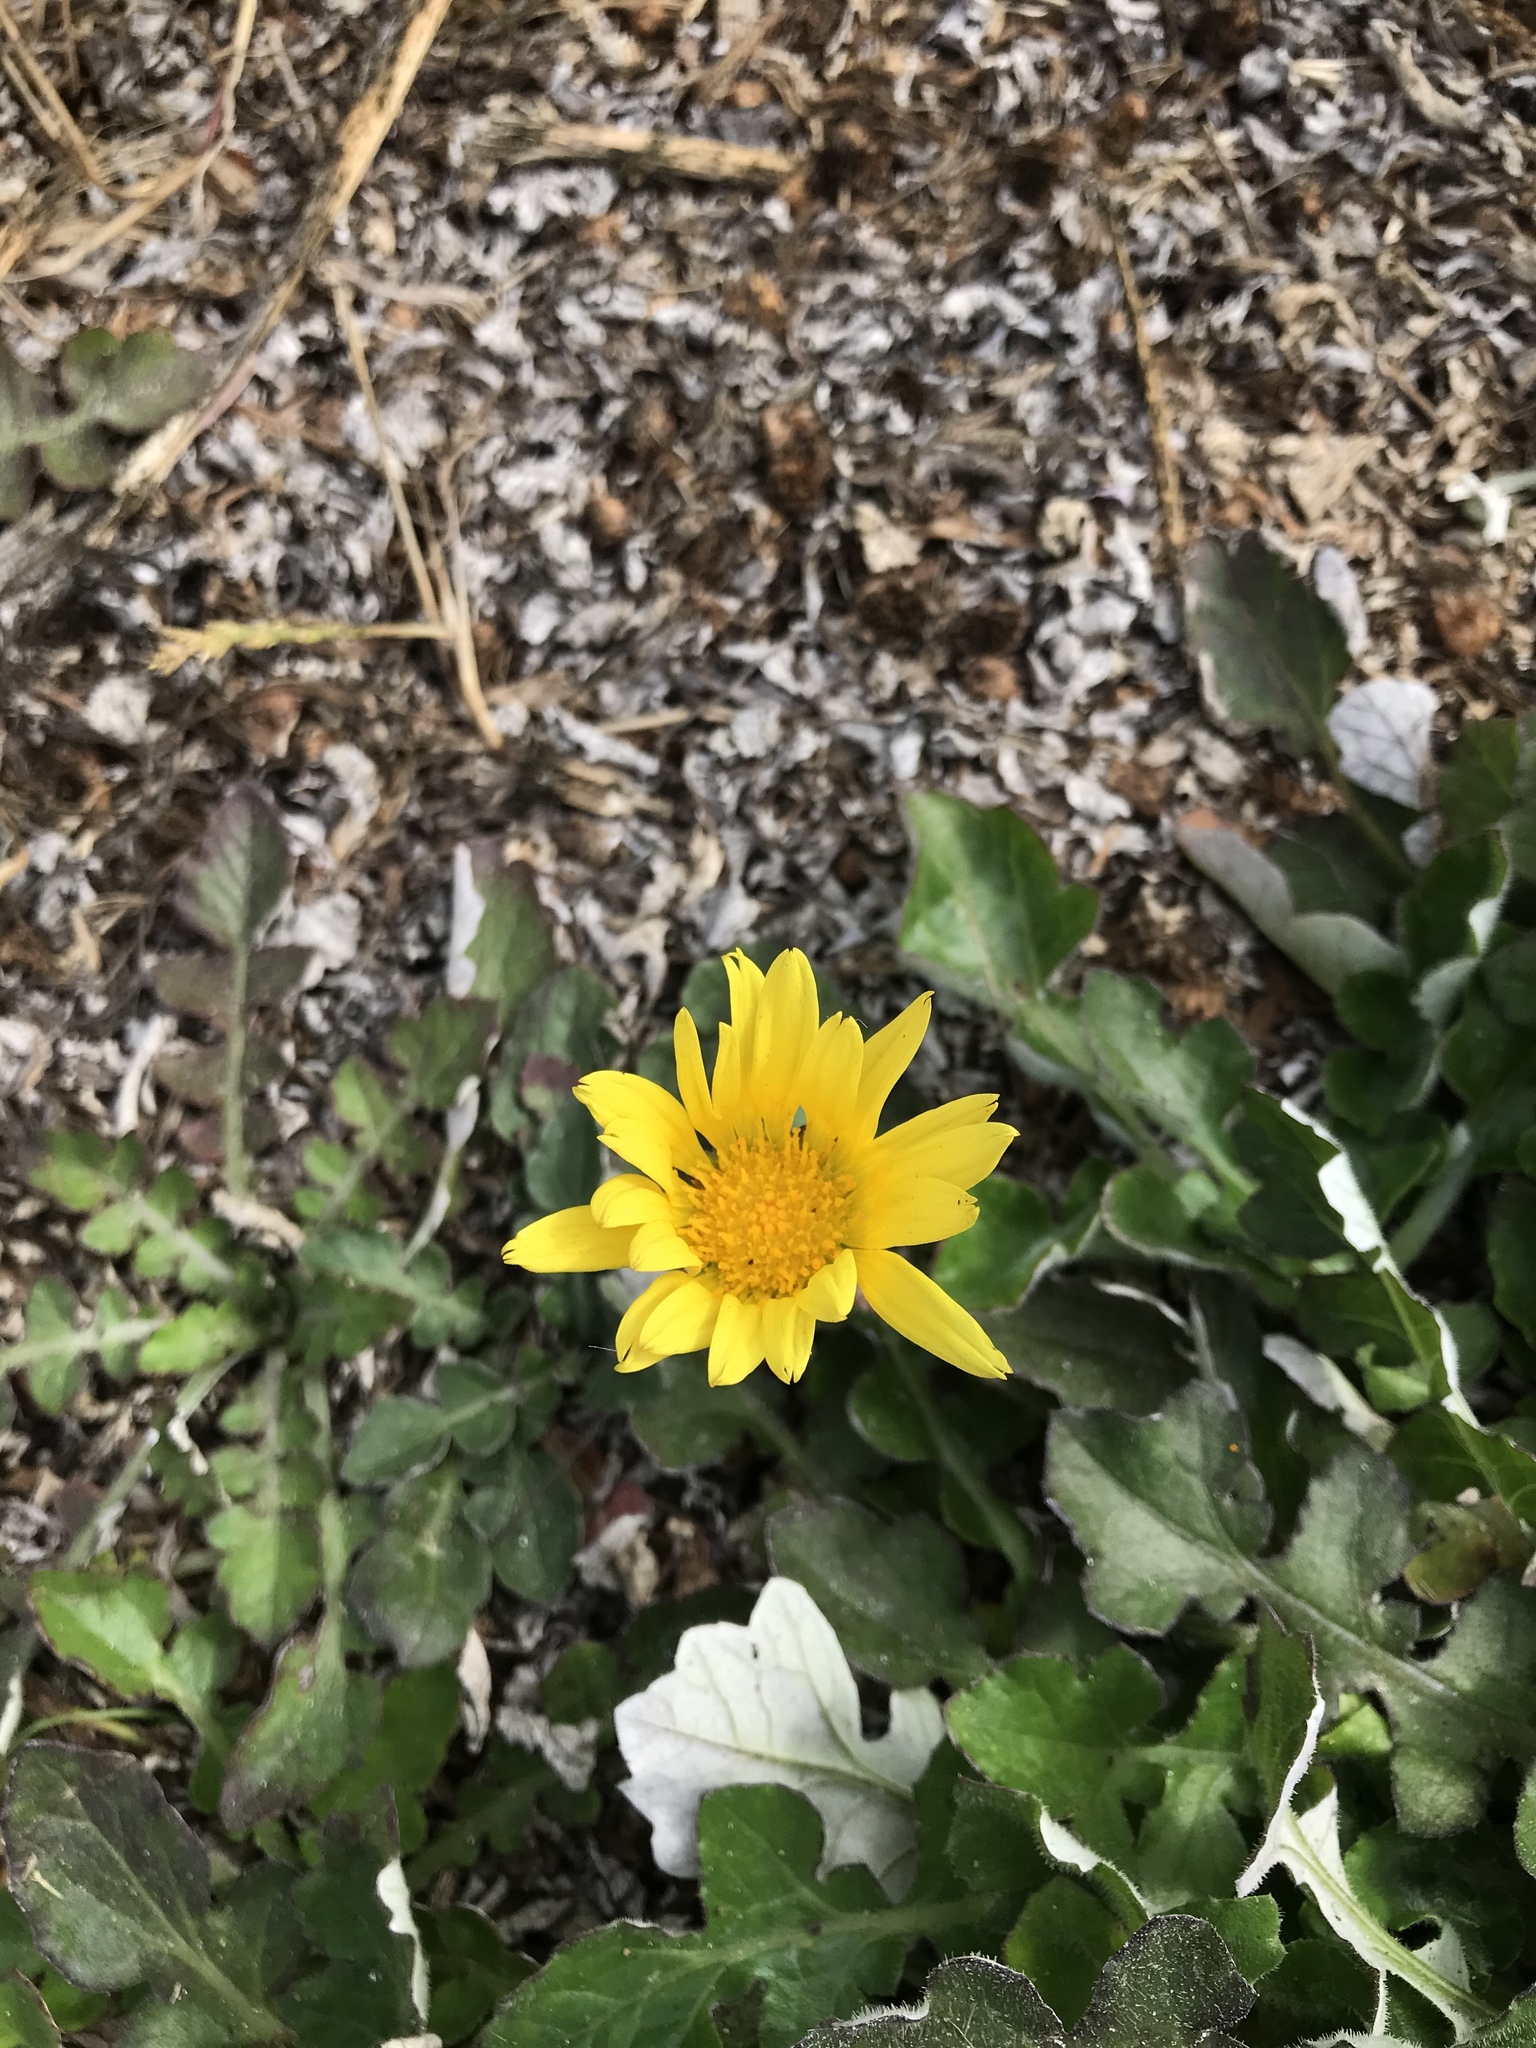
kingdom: Plantae
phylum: Tracheophyta
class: Magnoliopsida
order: Asterales
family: Asteraceae
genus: Arctotheca
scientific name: Arctotheca prostrata
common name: Capeweed
